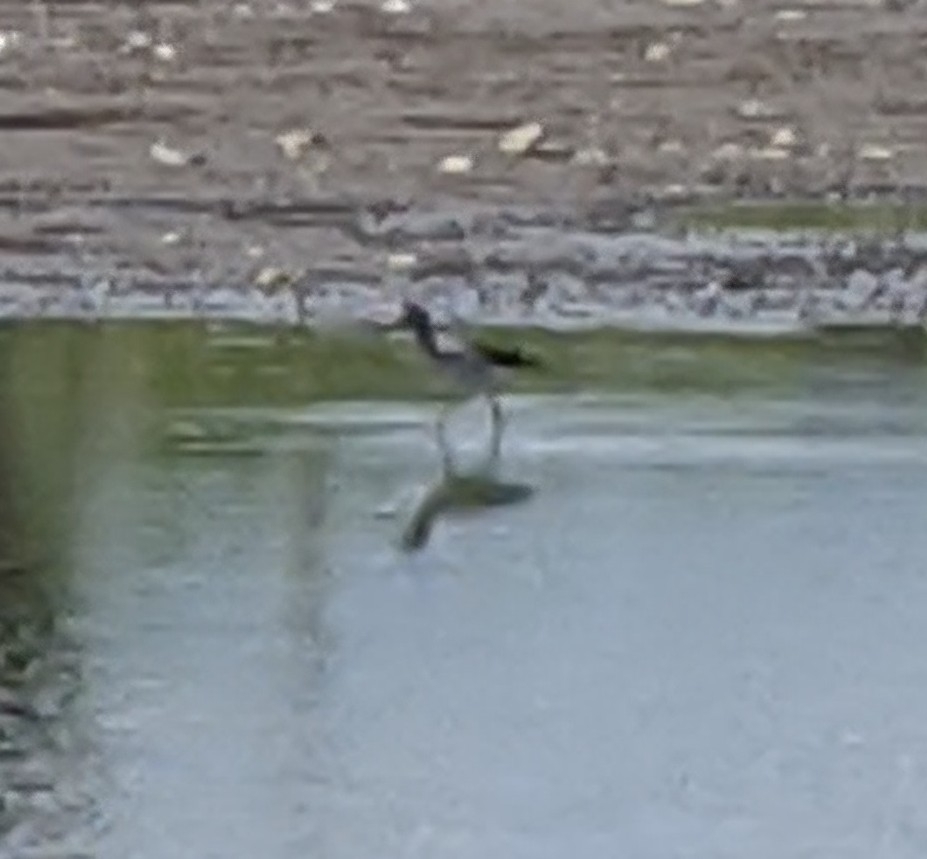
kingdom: Animalia
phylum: Chordata
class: Aves
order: Charadriiformes
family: Scolopacidae
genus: Tringa
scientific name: Tringa melanoleuca
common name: Greater yellowlegs
